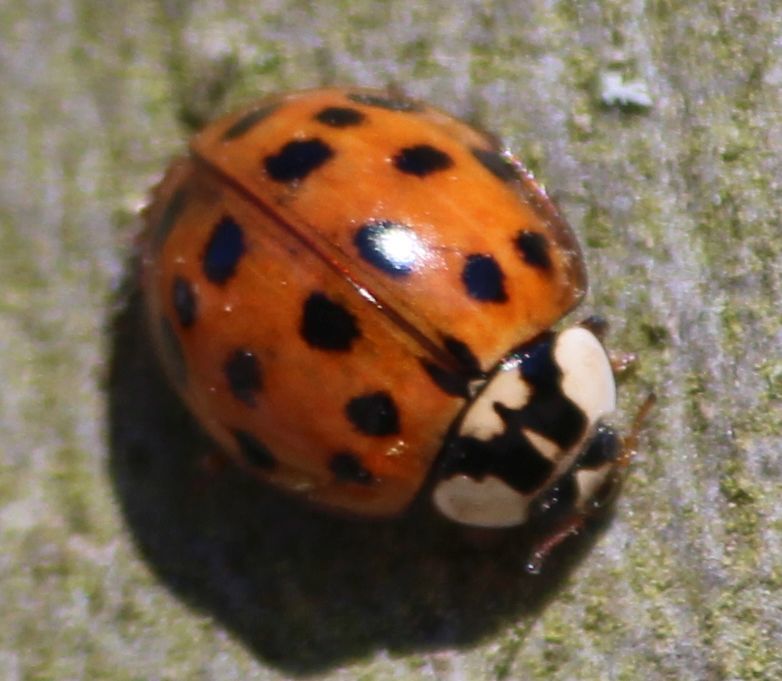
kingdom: Animalia
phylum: Arthropoda
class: Insecta
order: Coleoptera
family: Coccinellidae
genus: Harmonia
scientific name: Harmonia axyridis
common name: Harlequin ladybird
